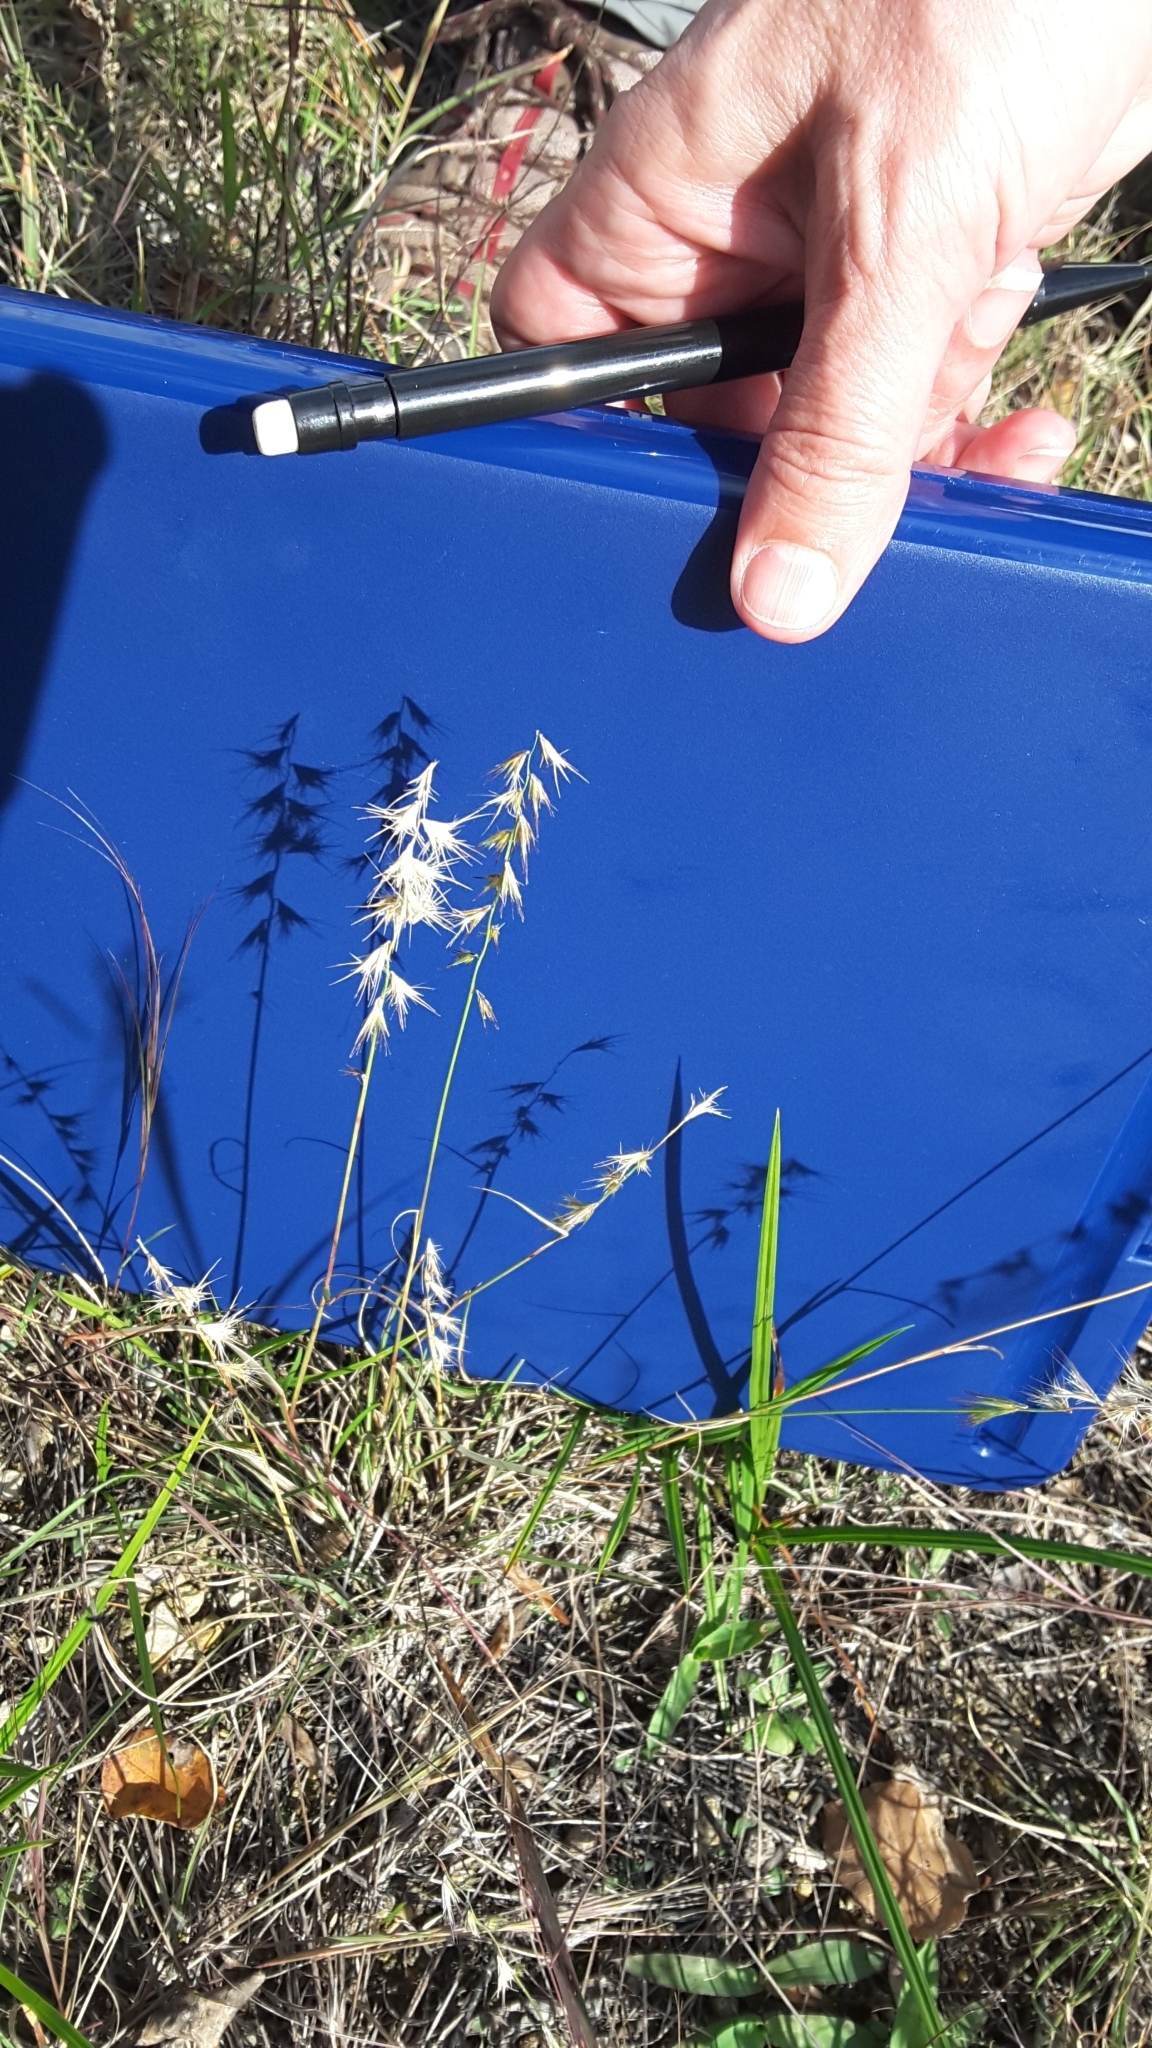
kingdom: Plantae
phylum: Tracheophyta
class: Liliopsida
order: Poales
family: Poaceae
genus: Bouteloua
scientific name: Bouteloua rigidiseta
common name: Texas grama
